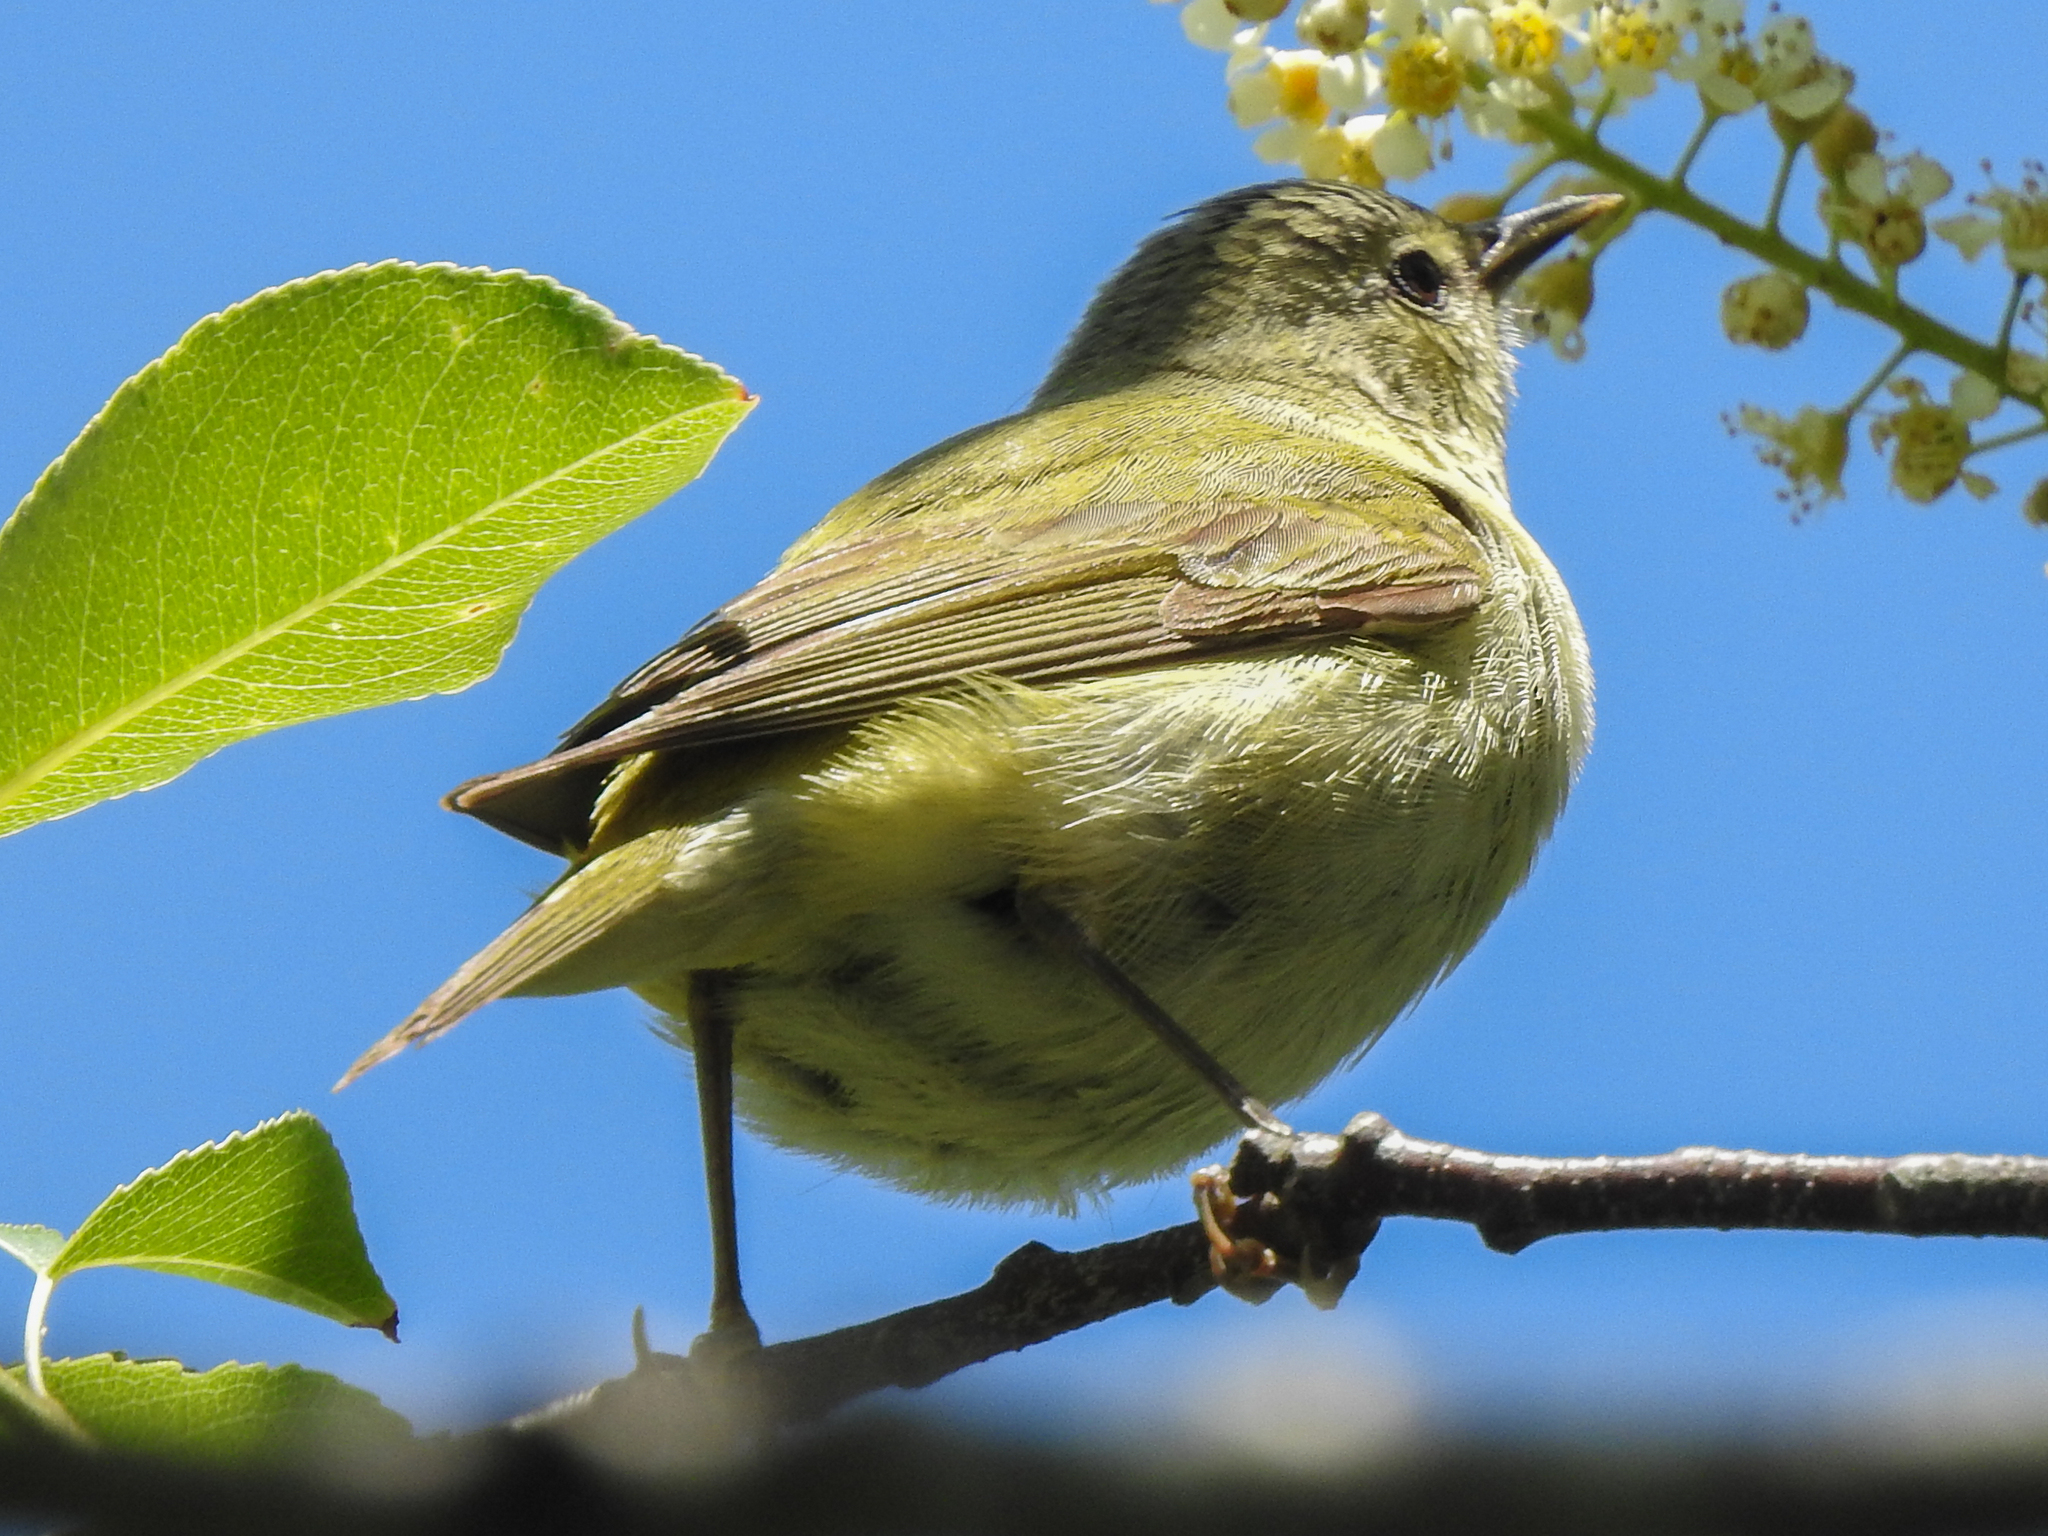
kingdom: Animalia
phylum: Chordata
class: Aves
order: Passeriformes
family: Parulidae
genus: Leiothlypis
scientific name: Leiothlypis peregrina
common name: Tennessee warbler
